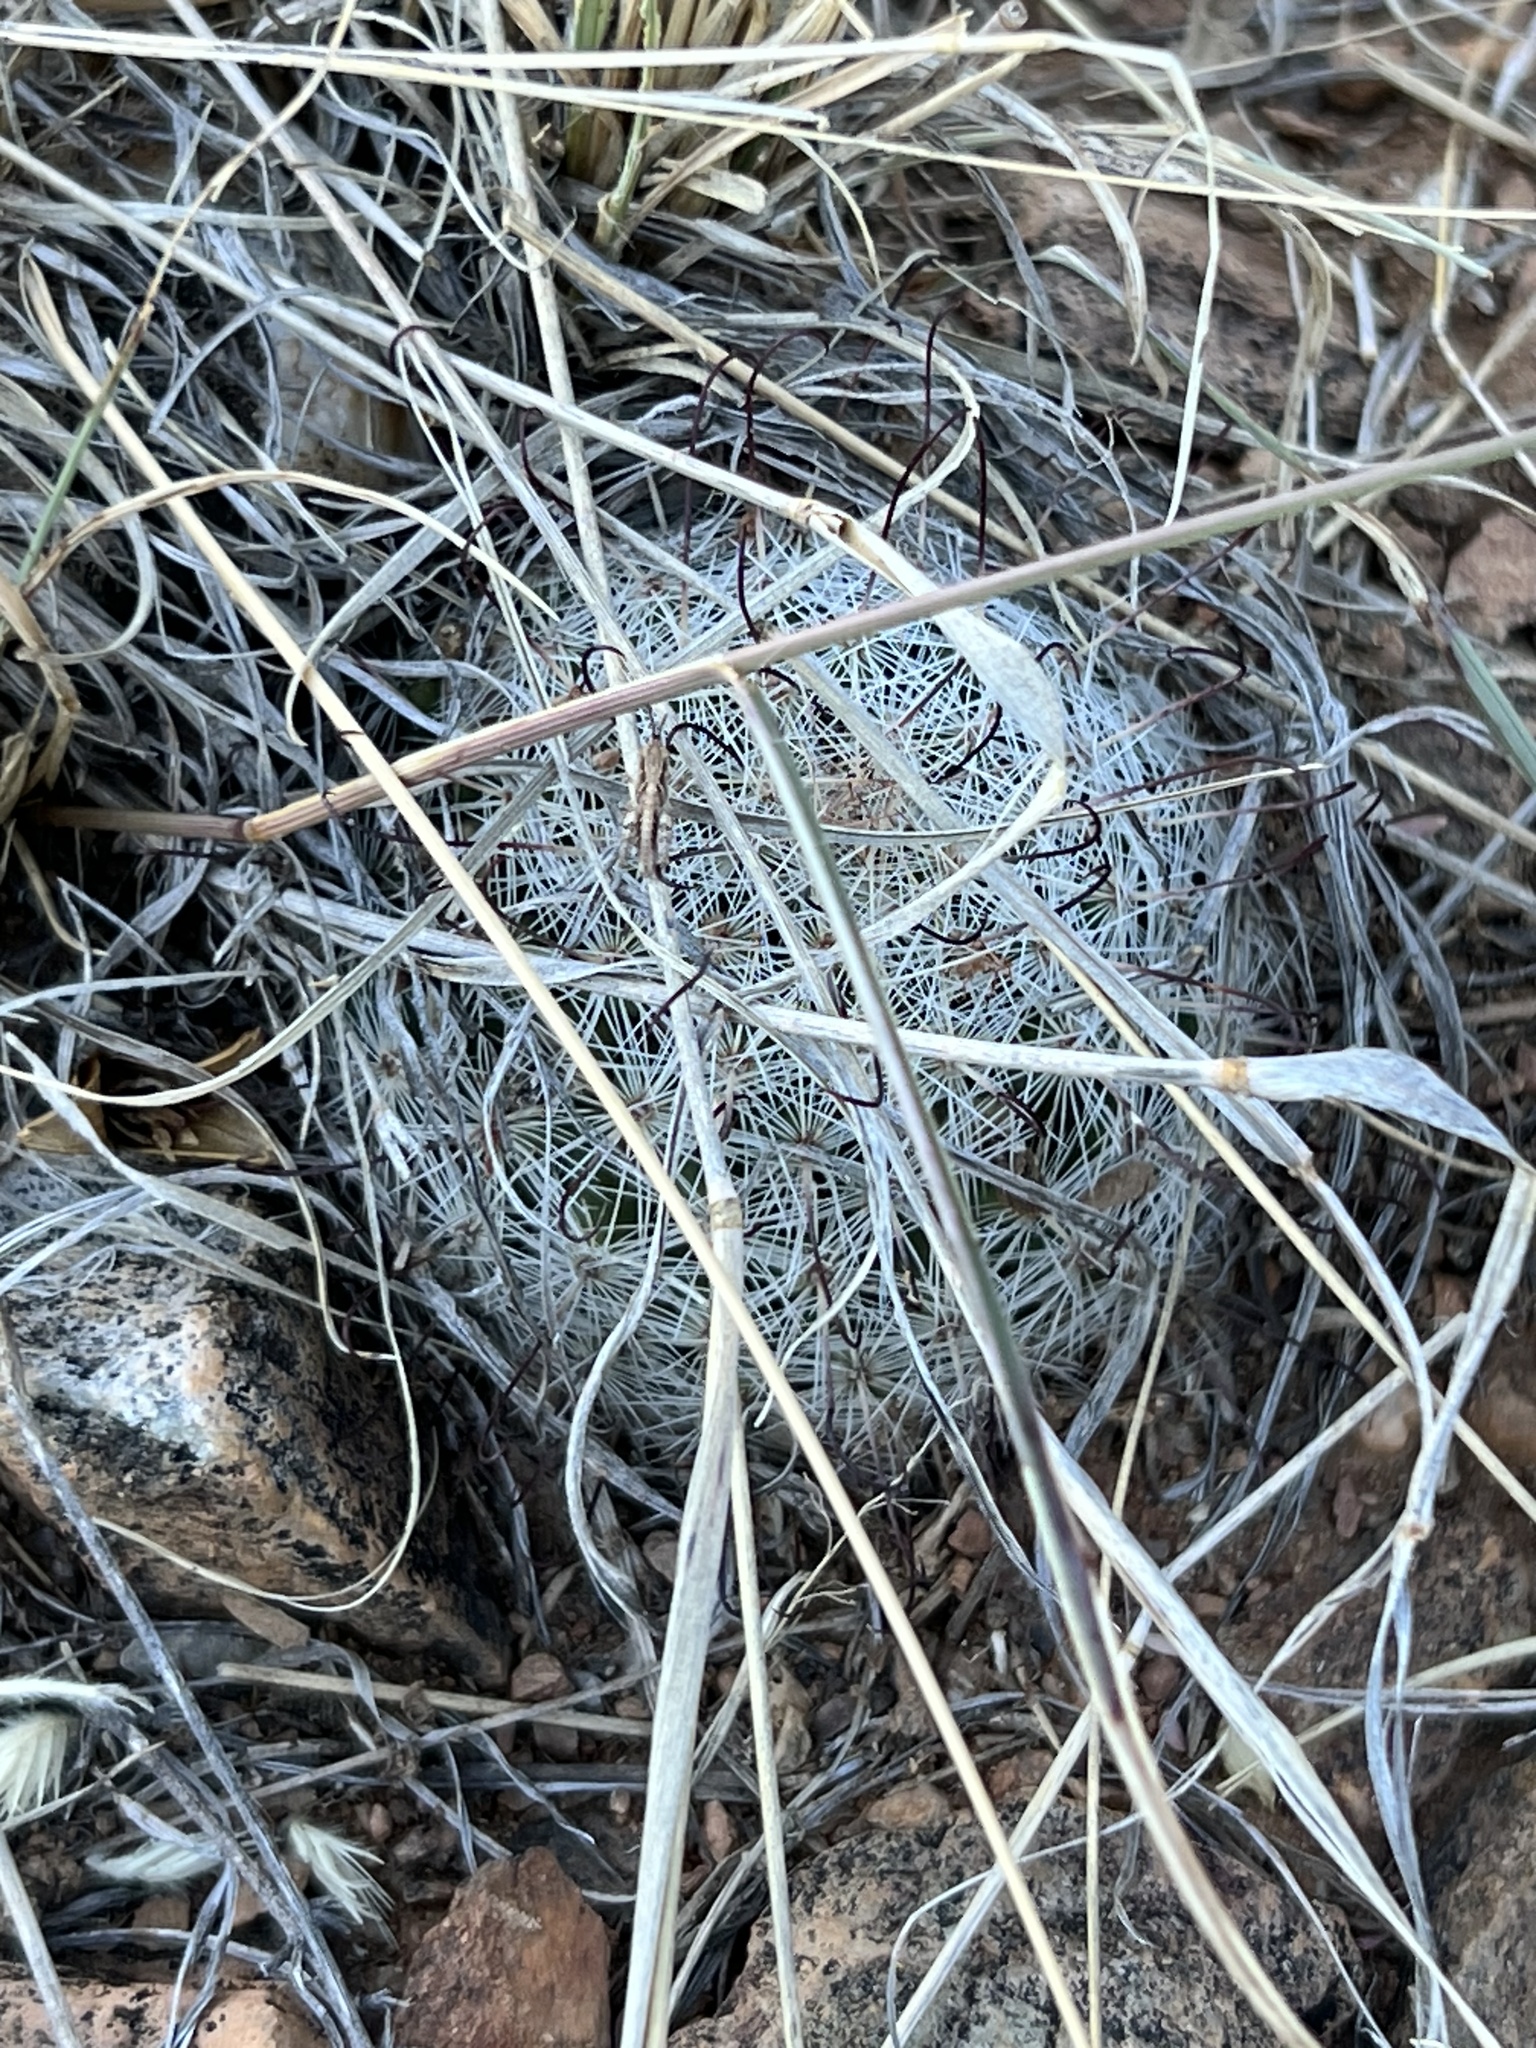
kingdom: Plantae
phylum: Tracheophyta
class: Magnoliopsida
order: Caryophyllales
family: Cactaceae
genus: Cochemiea
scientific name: Cochemiea grahamii
